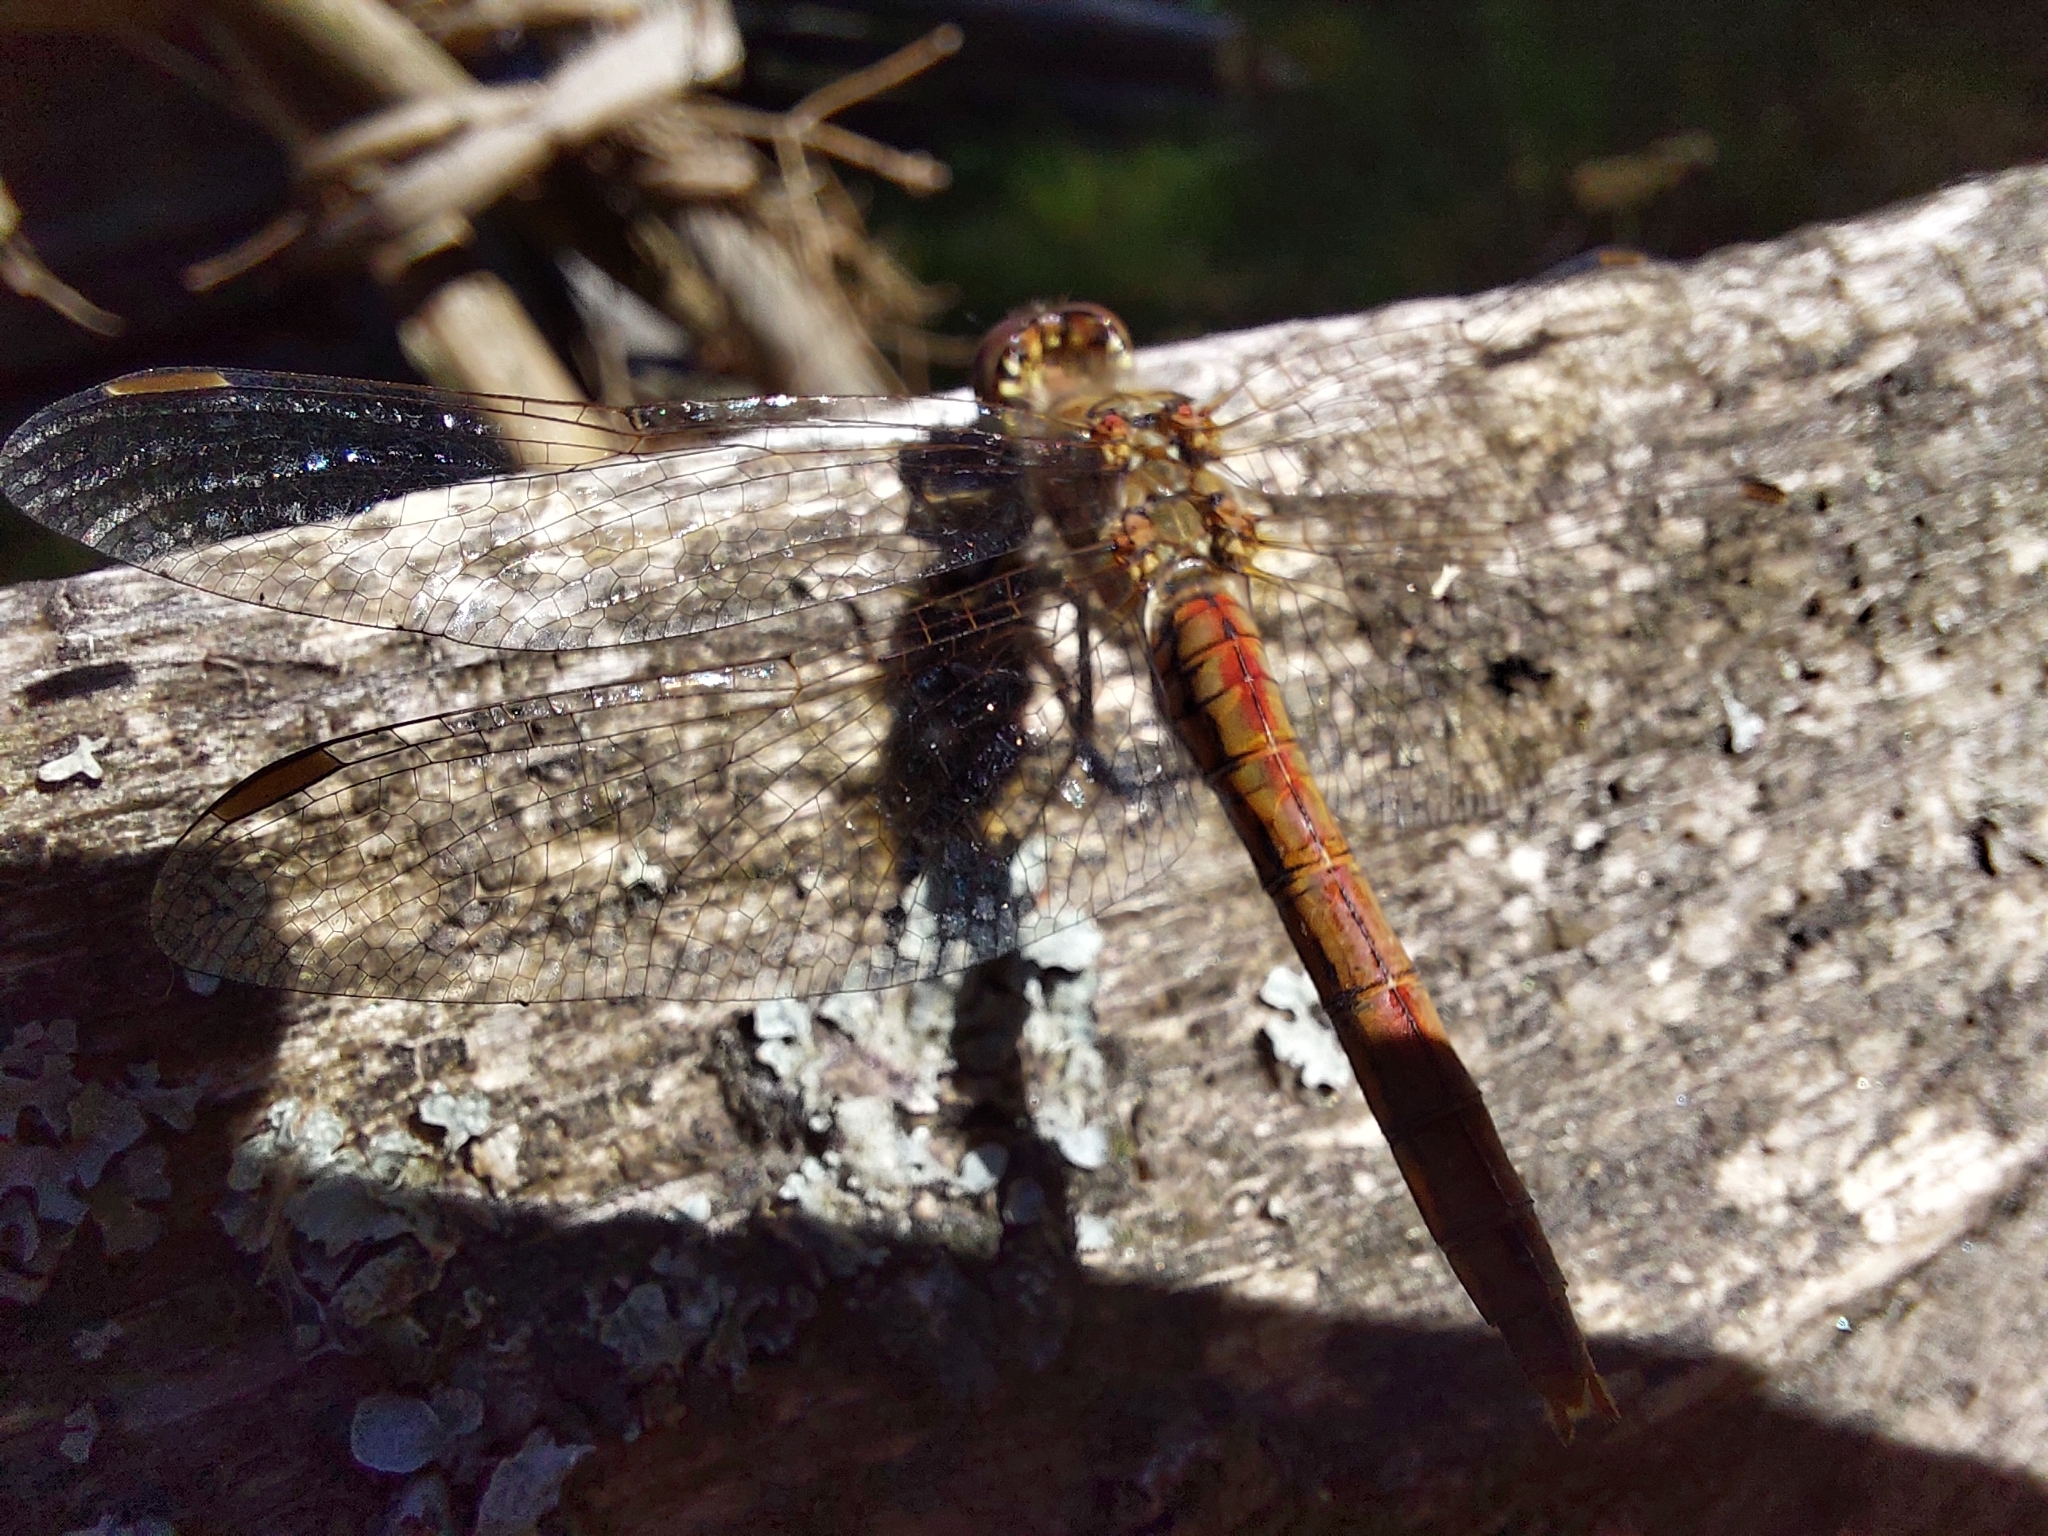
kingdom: Animalia
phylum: Arthropoda
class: Insecta
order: Odonata
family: Libellulidae
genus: Sympetrum
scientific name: Sympetrum vulgatum
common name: Vagrant darter
